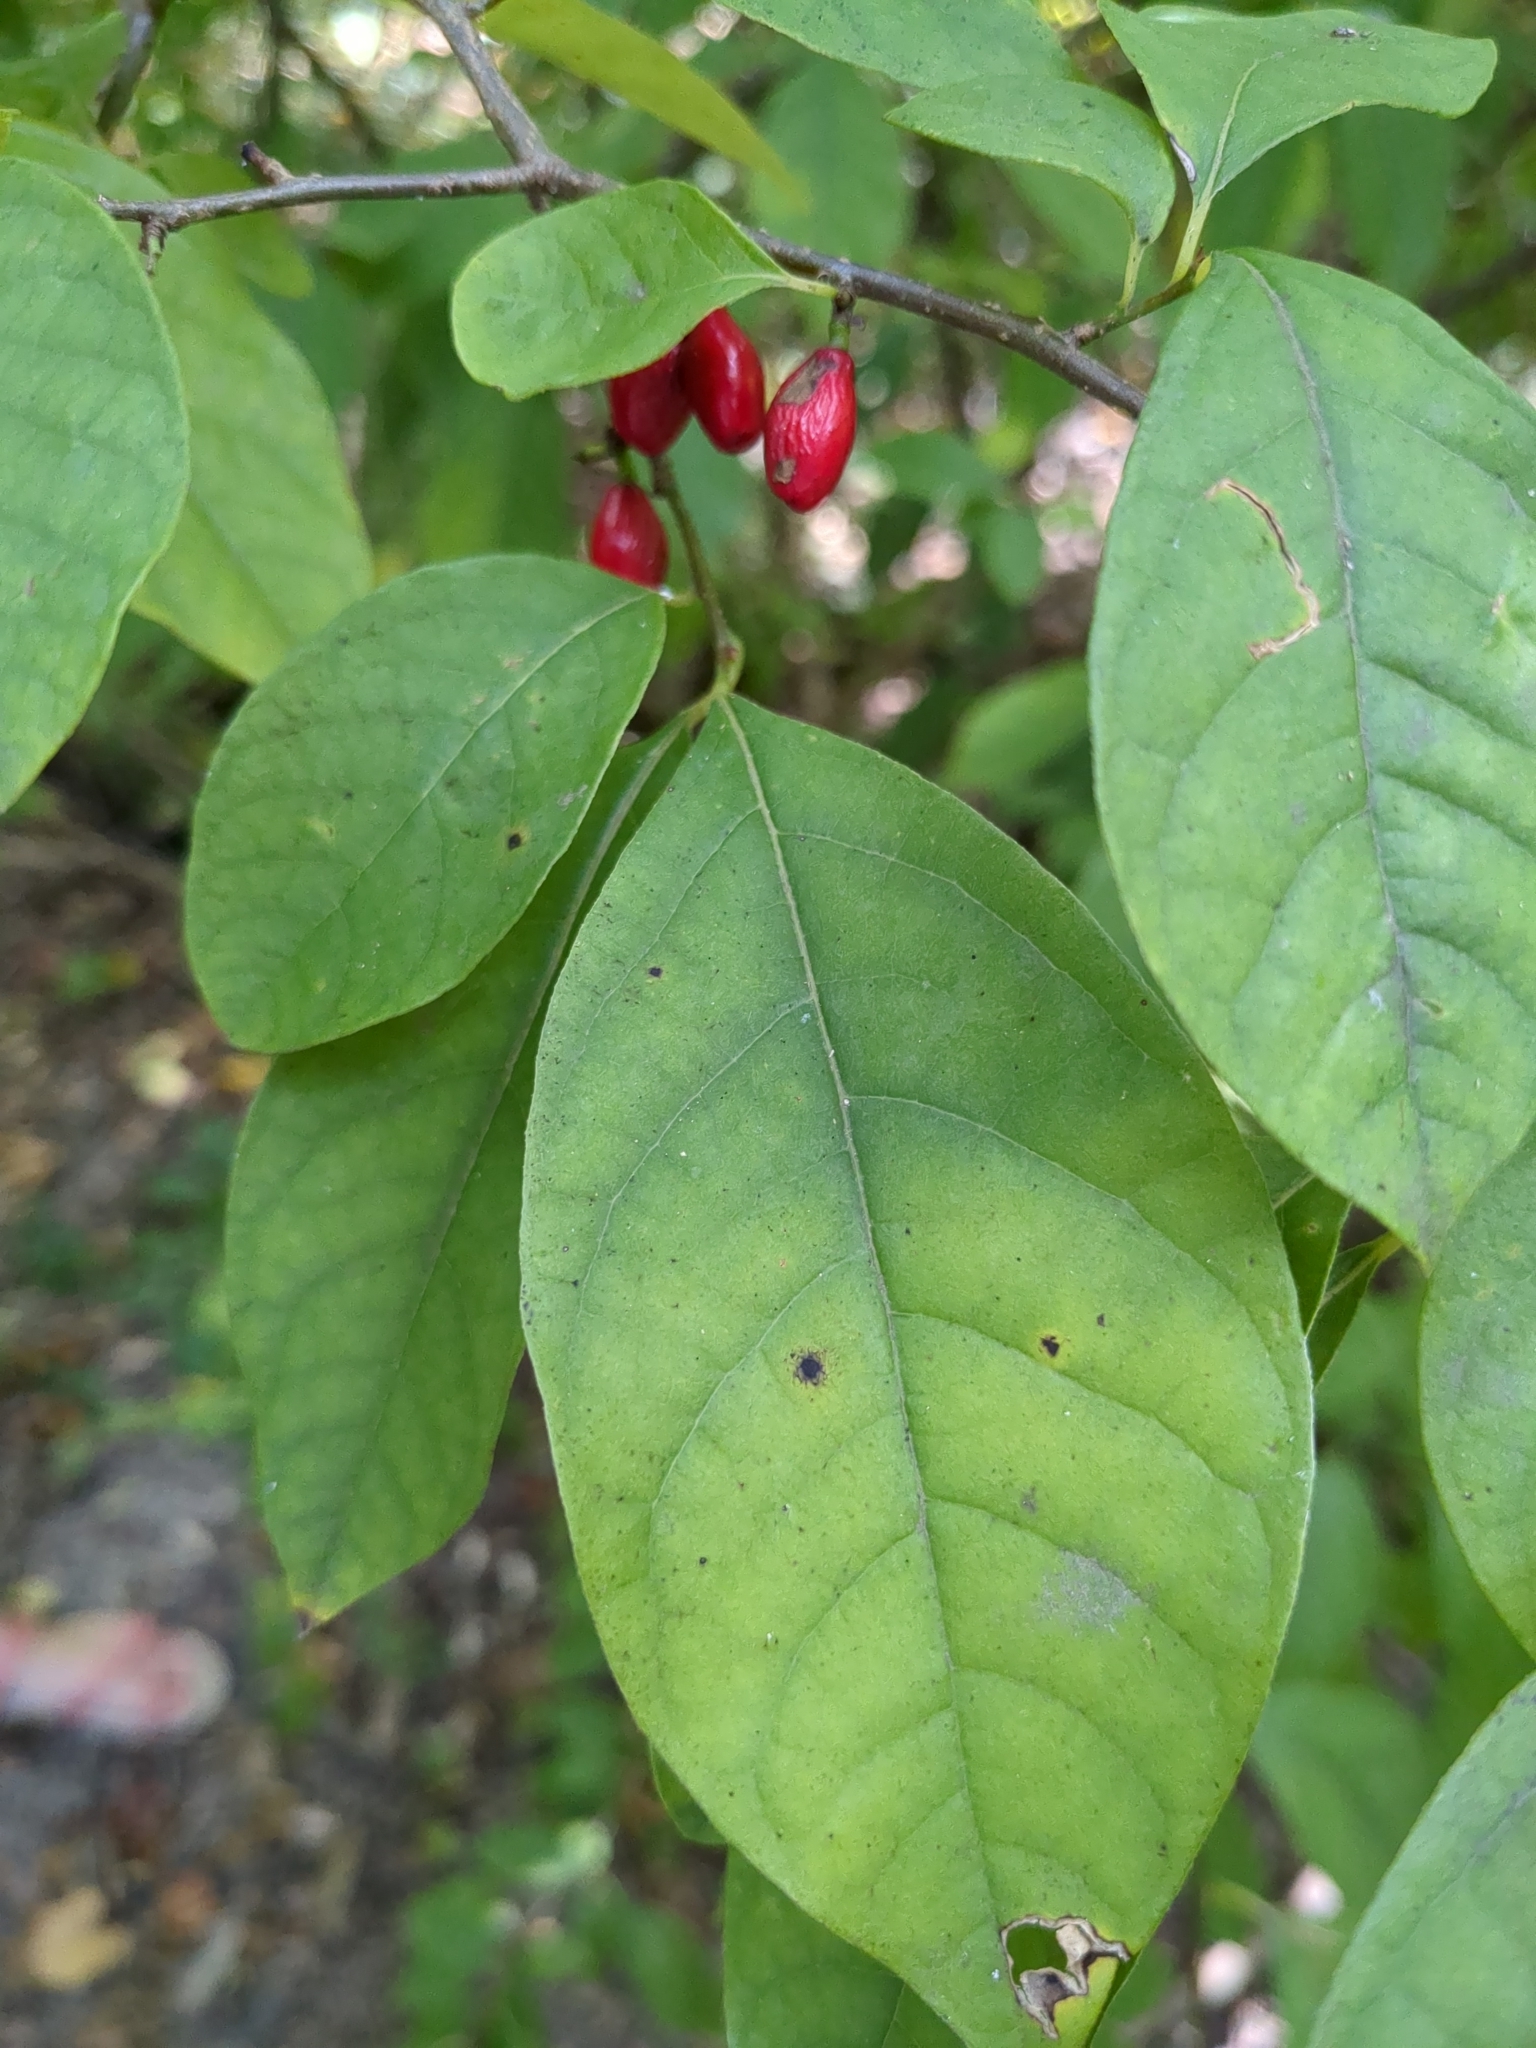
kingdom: Plantae
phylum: Tracheophyta
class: Magnoliopsida
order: Laurales
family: Lauraceae
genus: Lindera
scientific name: Lindera benzoin
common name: Spicebush
